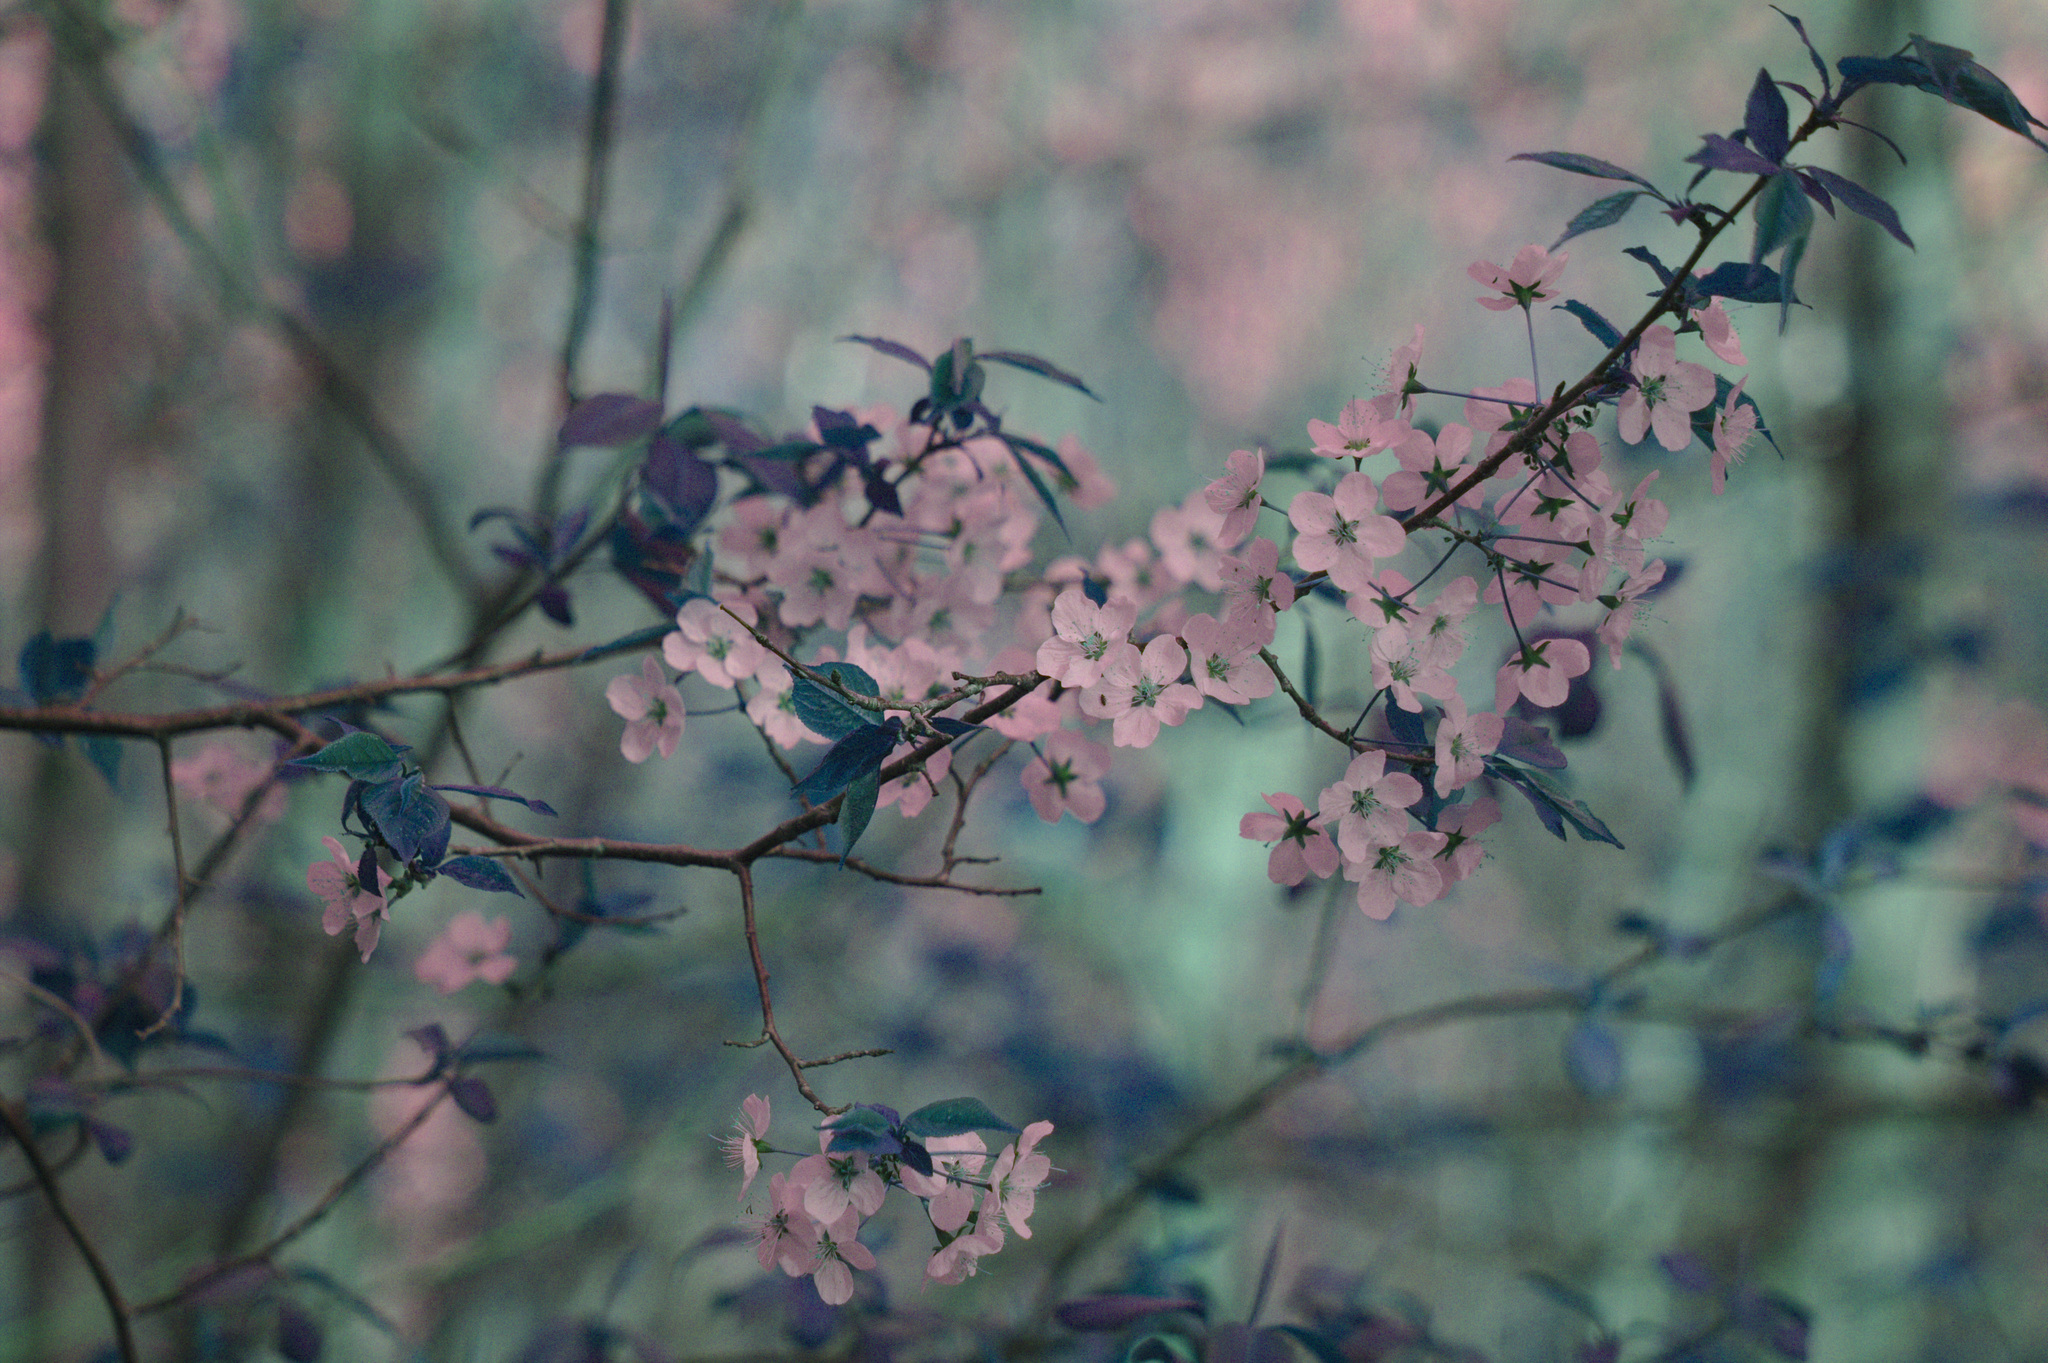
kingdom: Plantae
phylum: Tracheophyta
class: Magnoliopsida
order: Rosales
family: Rosaceae
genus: Prunus
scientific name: Prunus nigra
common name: Black plum
